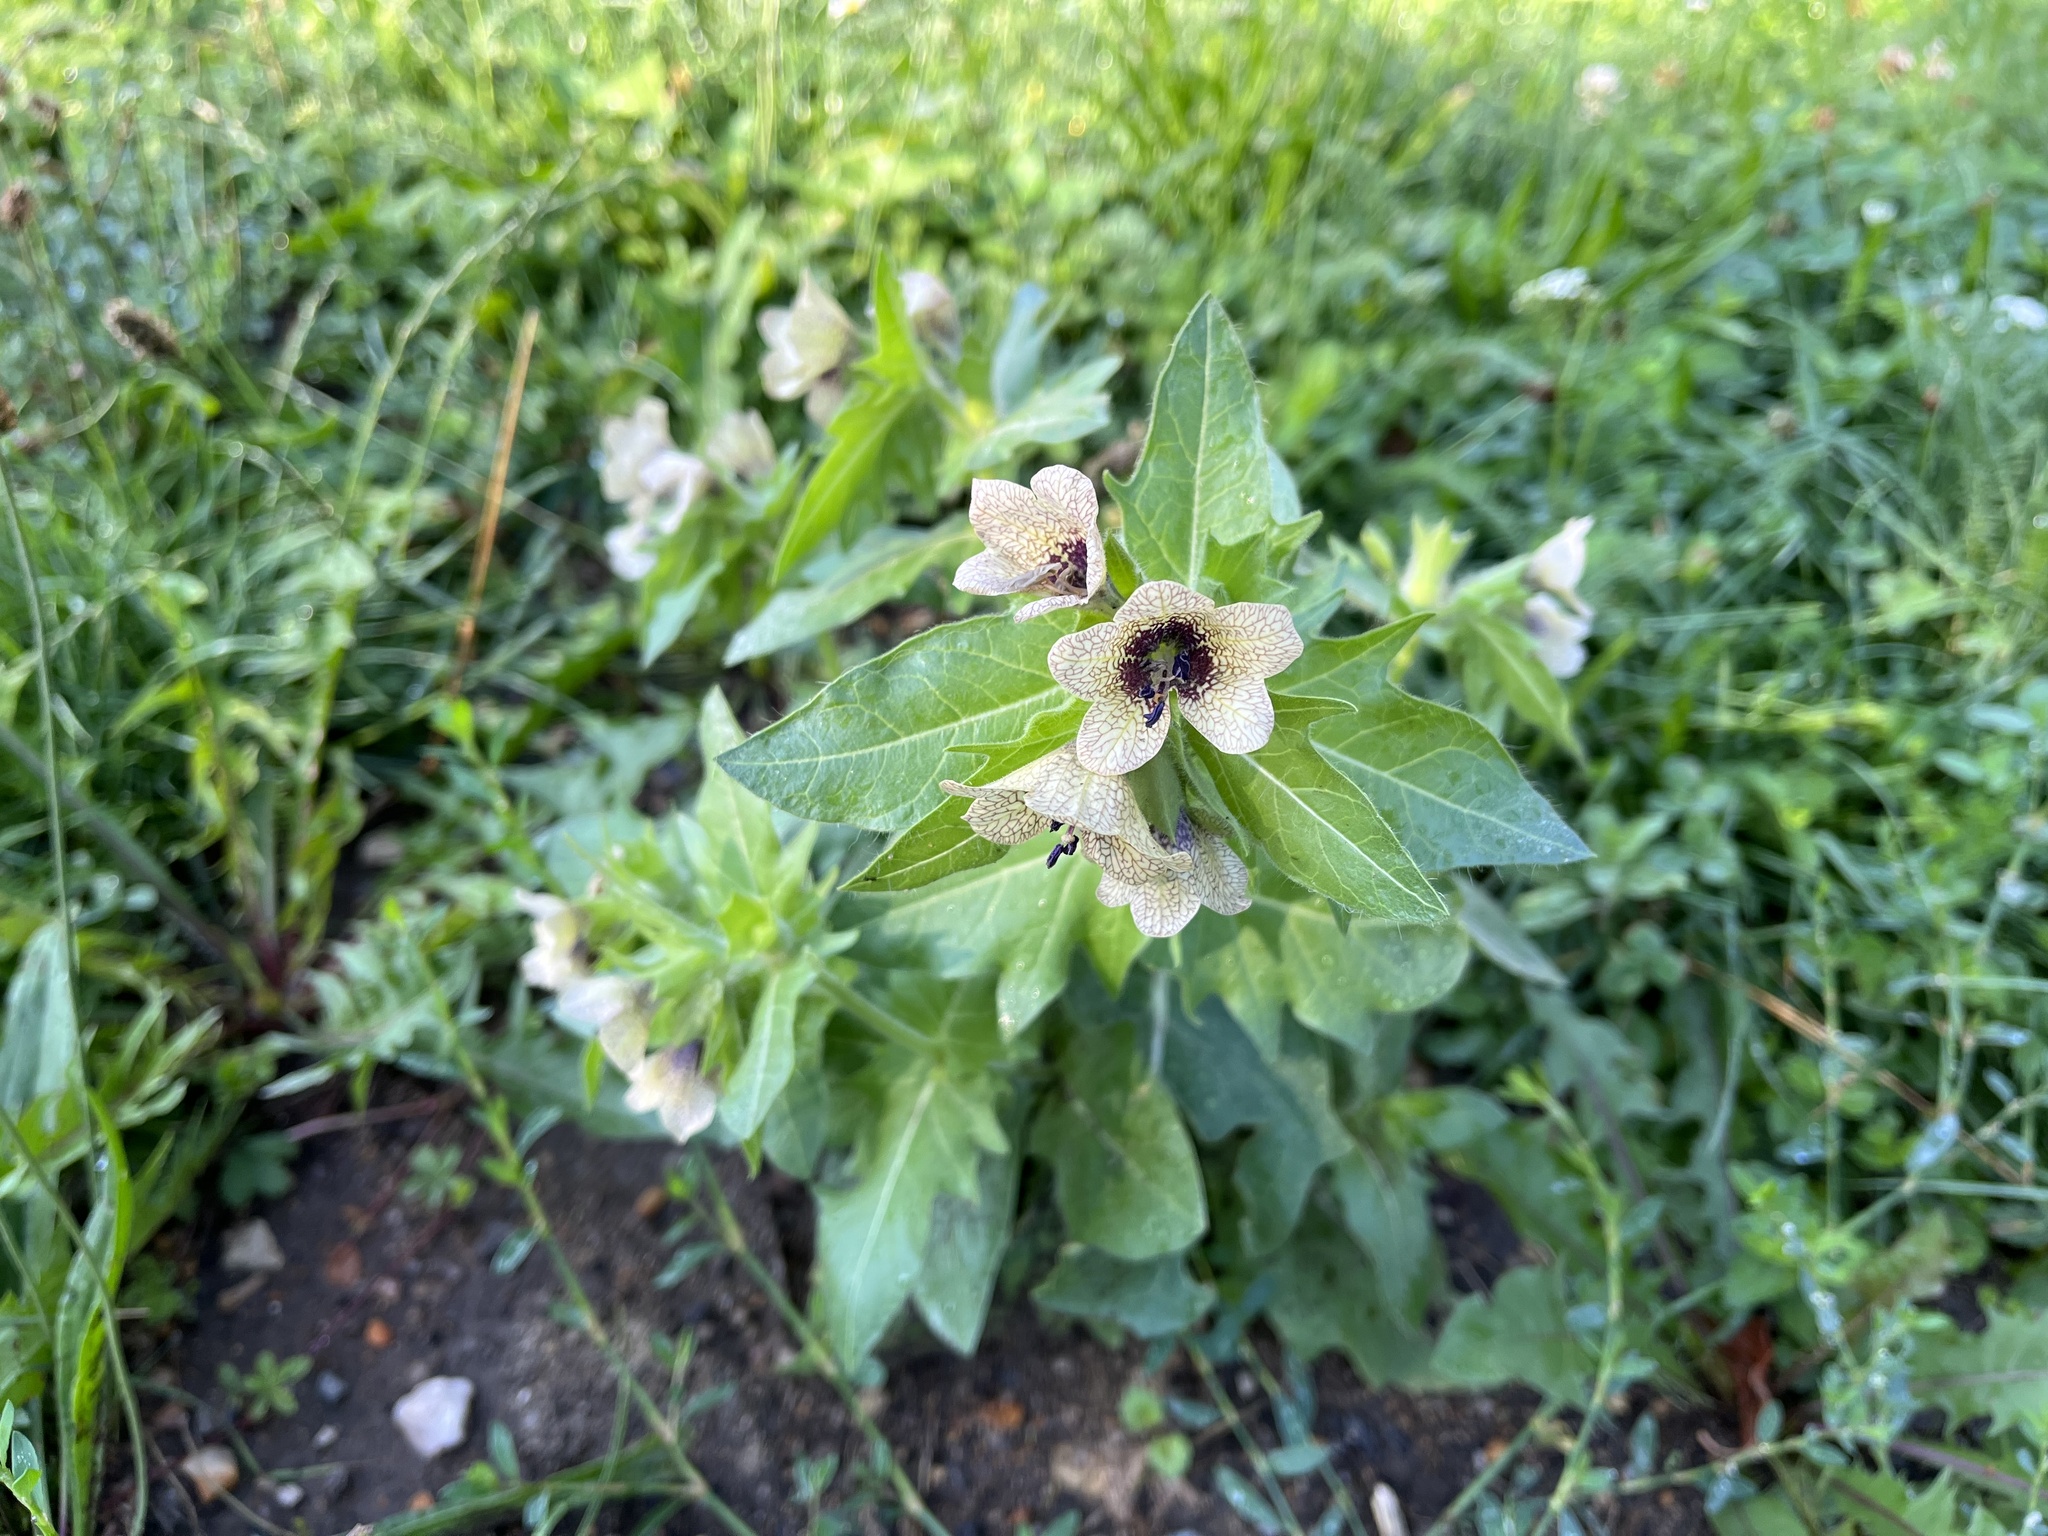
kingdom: Plantae
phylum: Tracheophyta
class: Magnoliopsida
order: Solanales
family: Solanaceae
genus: Hyoscyamus
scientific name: Hyoscyamus niger
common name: Henbane
